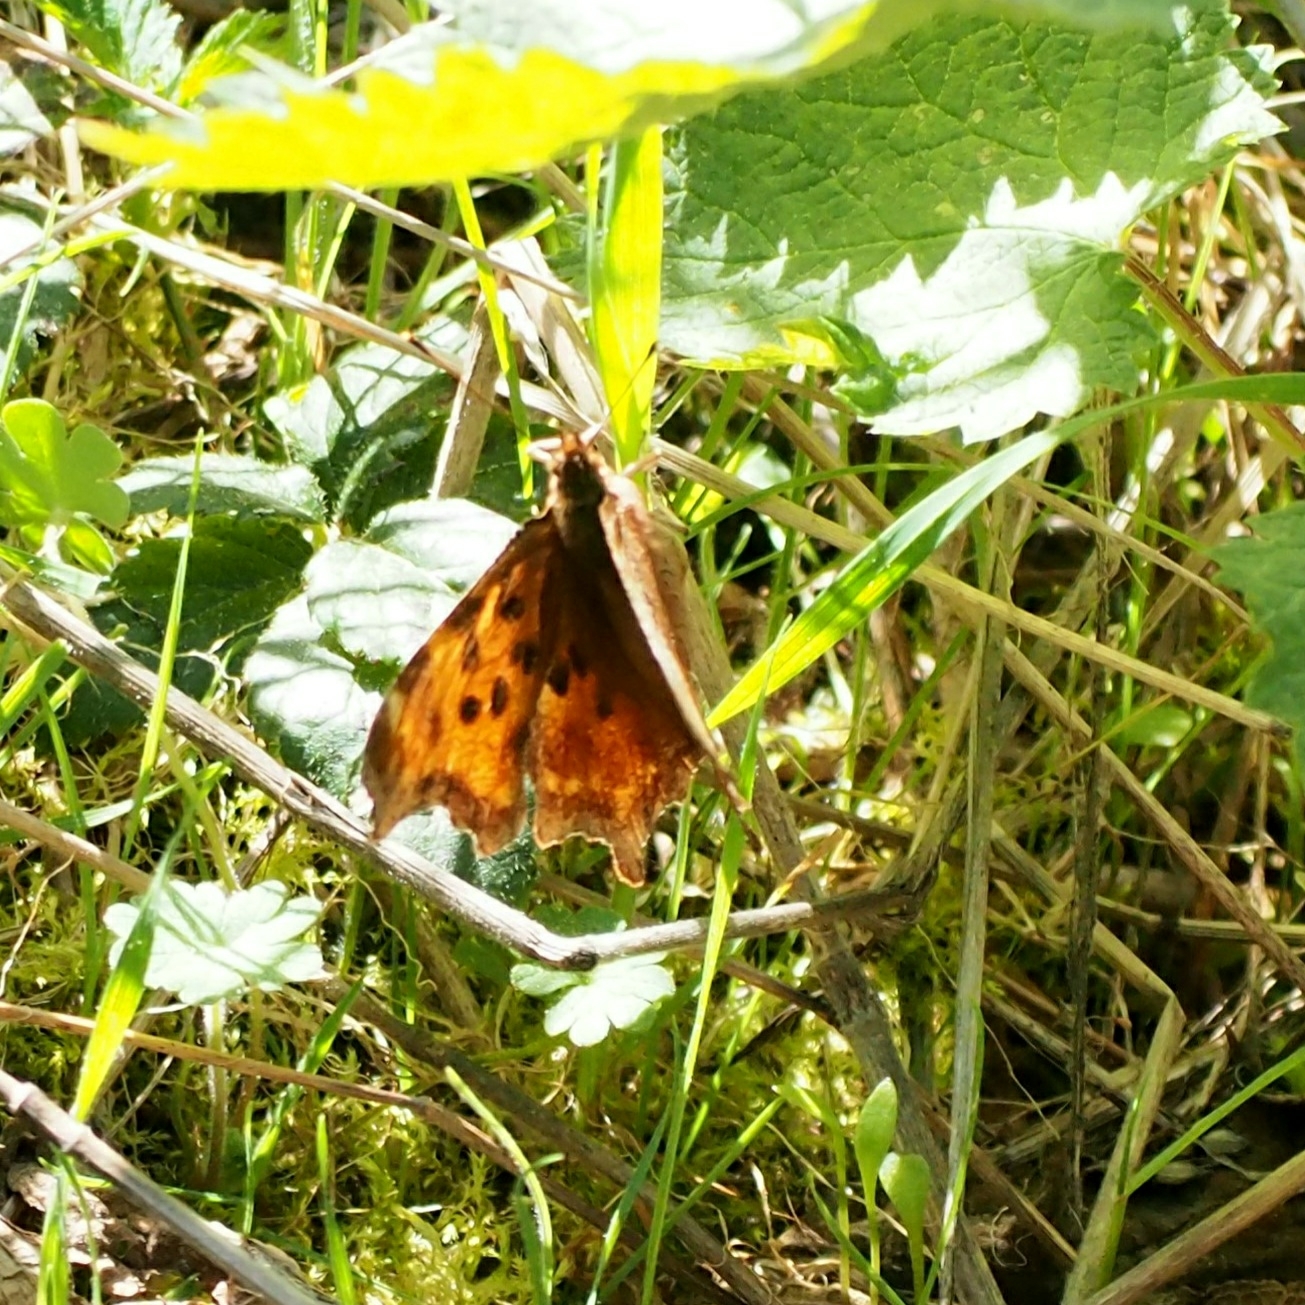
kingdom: Animalia
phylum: Arthropoda
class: Insecta
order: Lepidoptera
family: Nymphalidae
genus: Polygonia
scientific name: Polygonia satyrus
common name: Satyr angle wing
